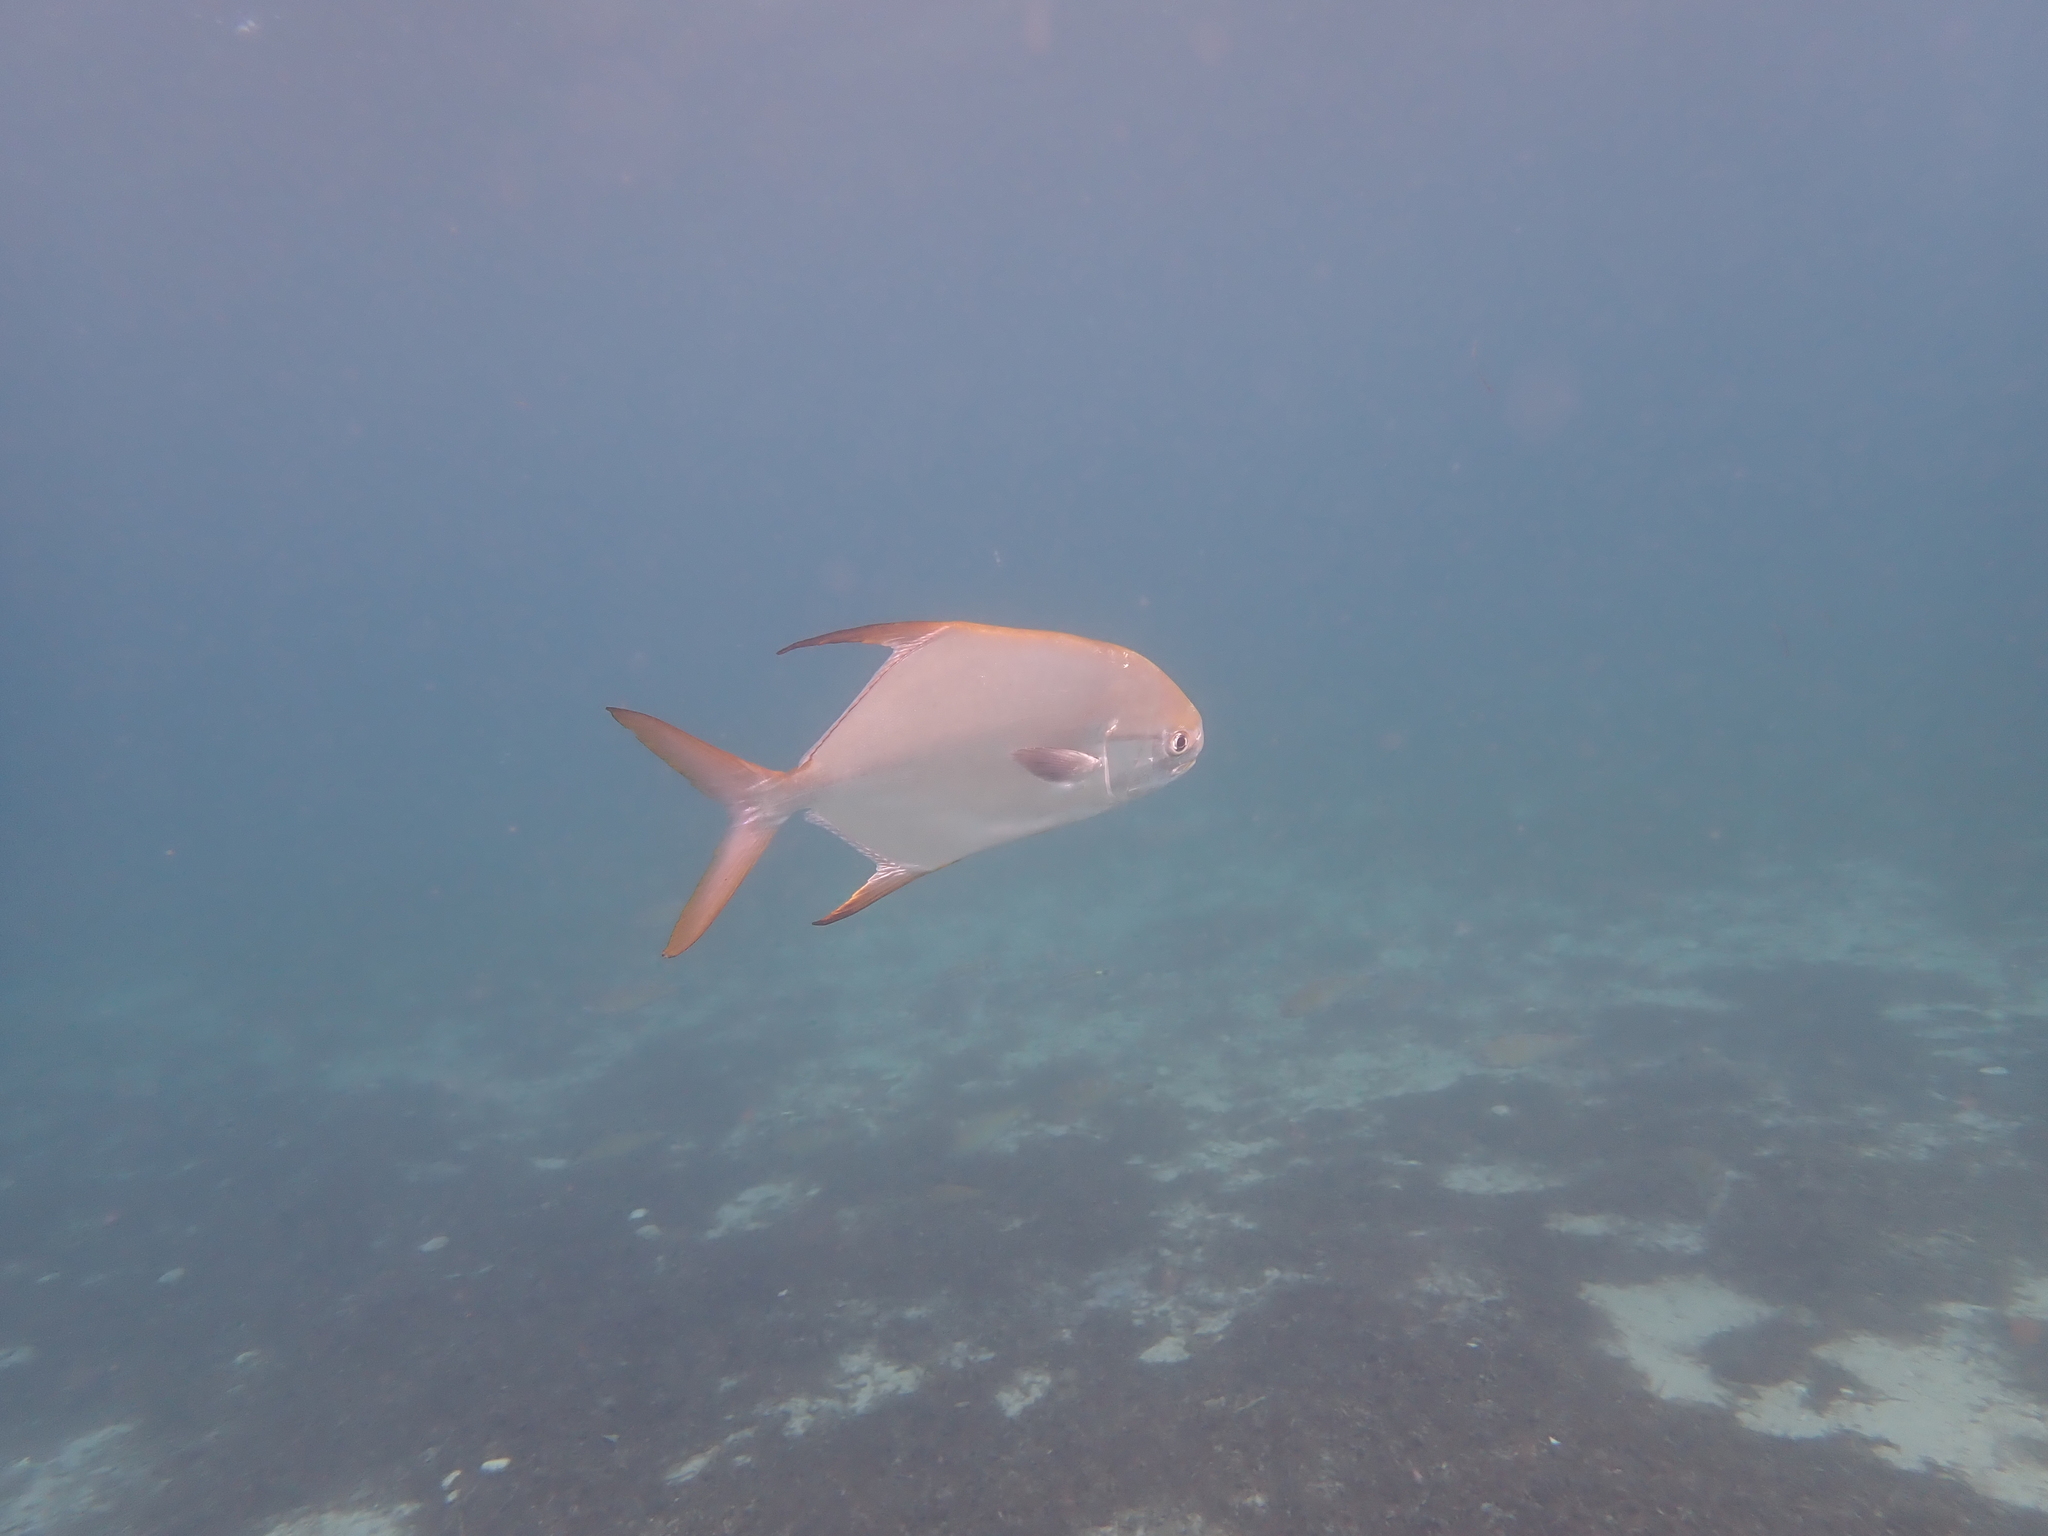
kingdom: Animalia
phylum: Chordata
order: Perciformes
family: Carangidae
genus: Trachinotus
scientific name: Trachinotus blochii
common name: Snubnose pompano
